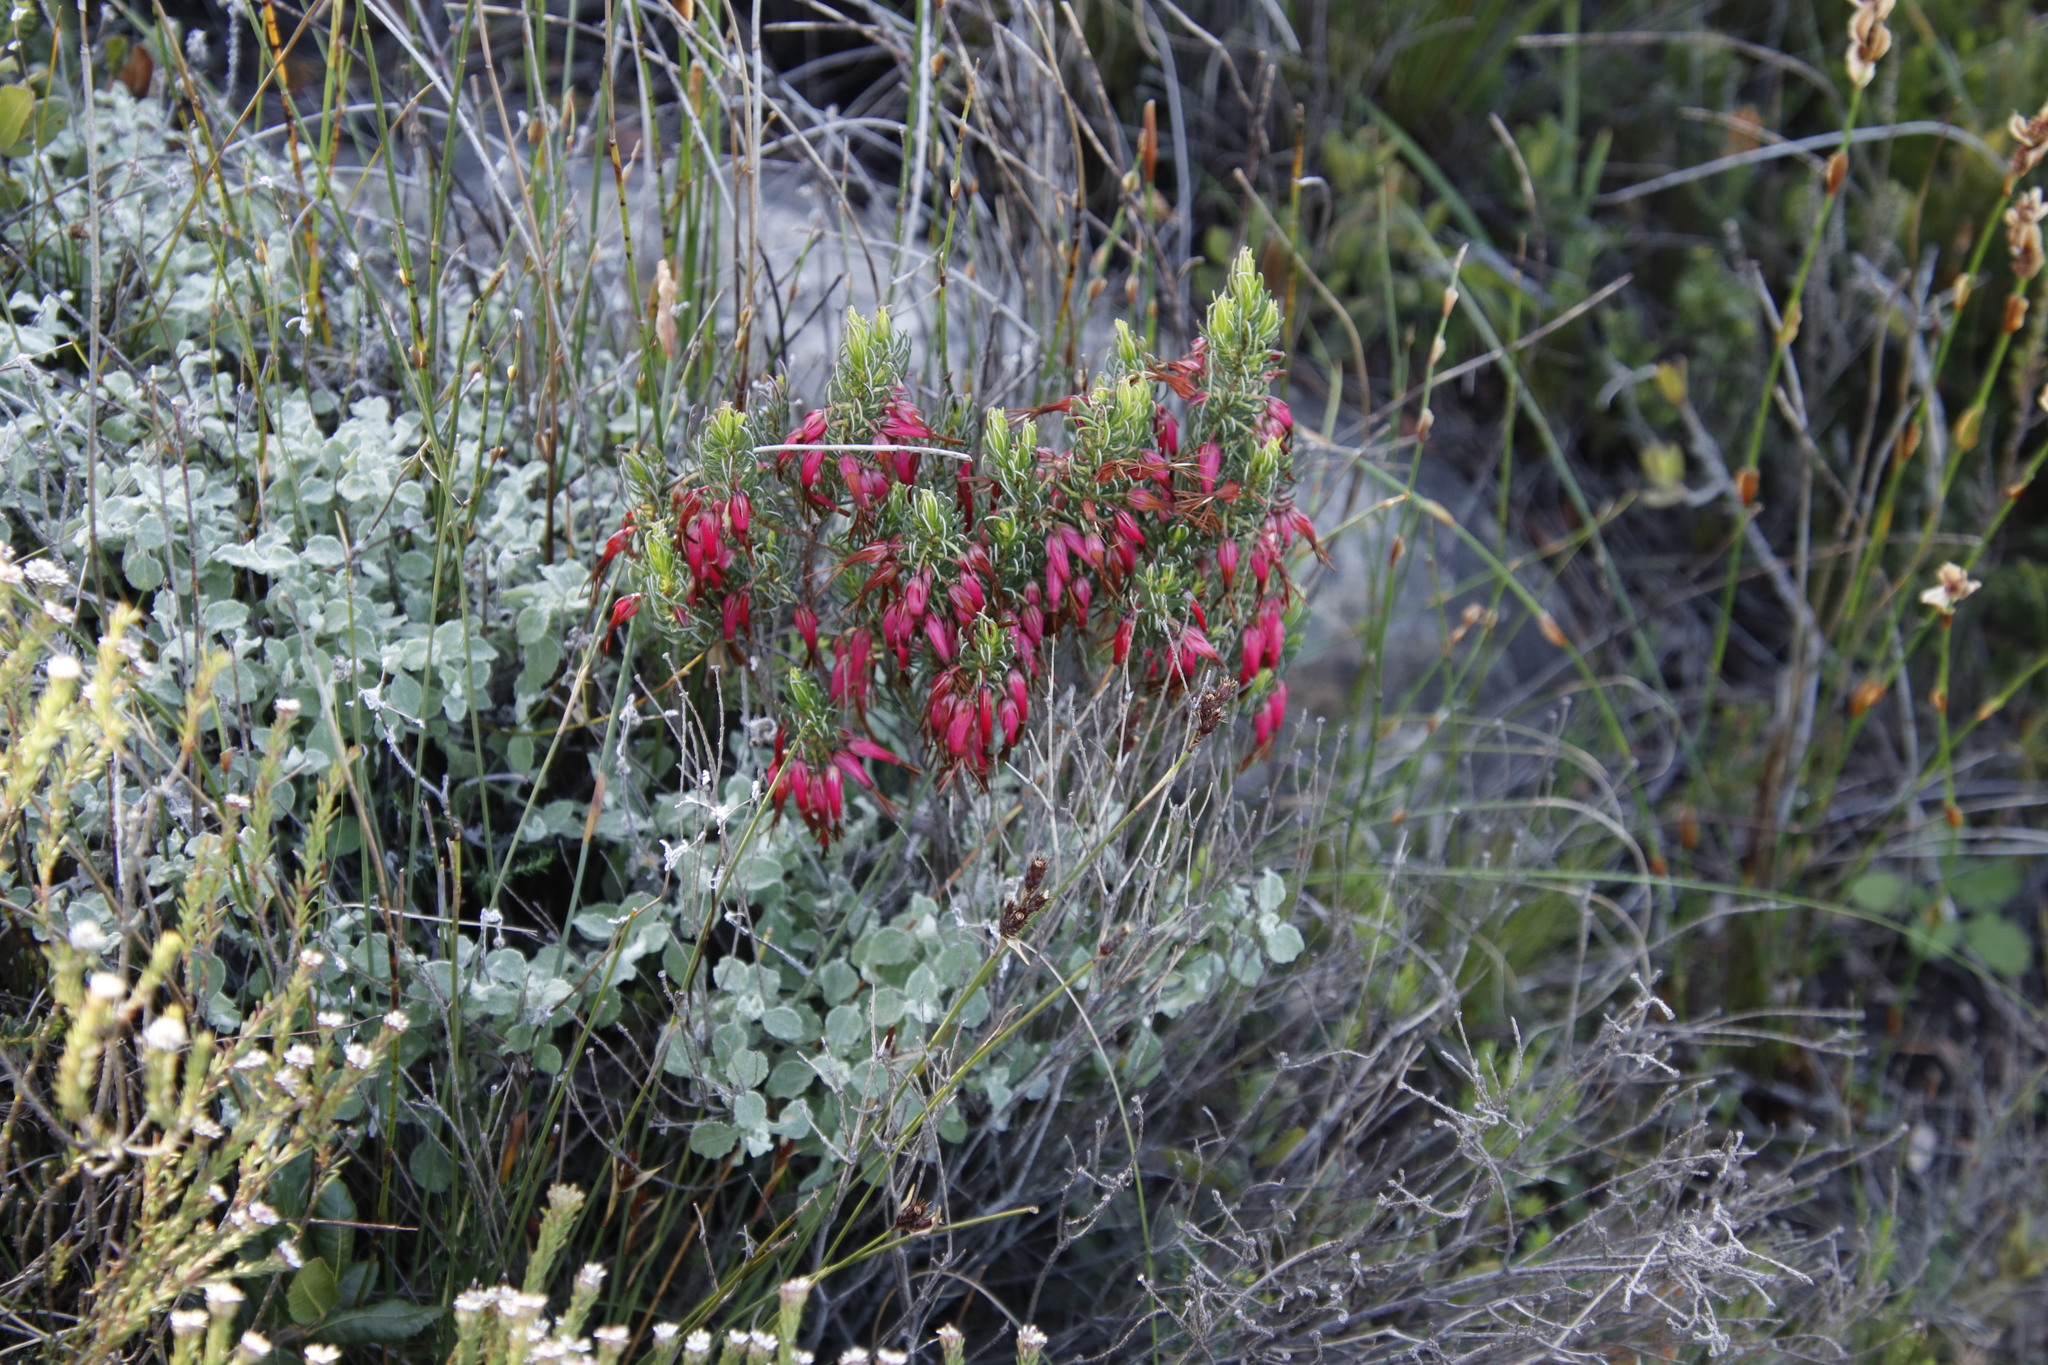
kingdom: Plantae
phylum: Tracheophyta
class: Magnoliopsida
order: Ericales
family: Ericaceae
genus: Erica
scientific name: Erica plukenetii
